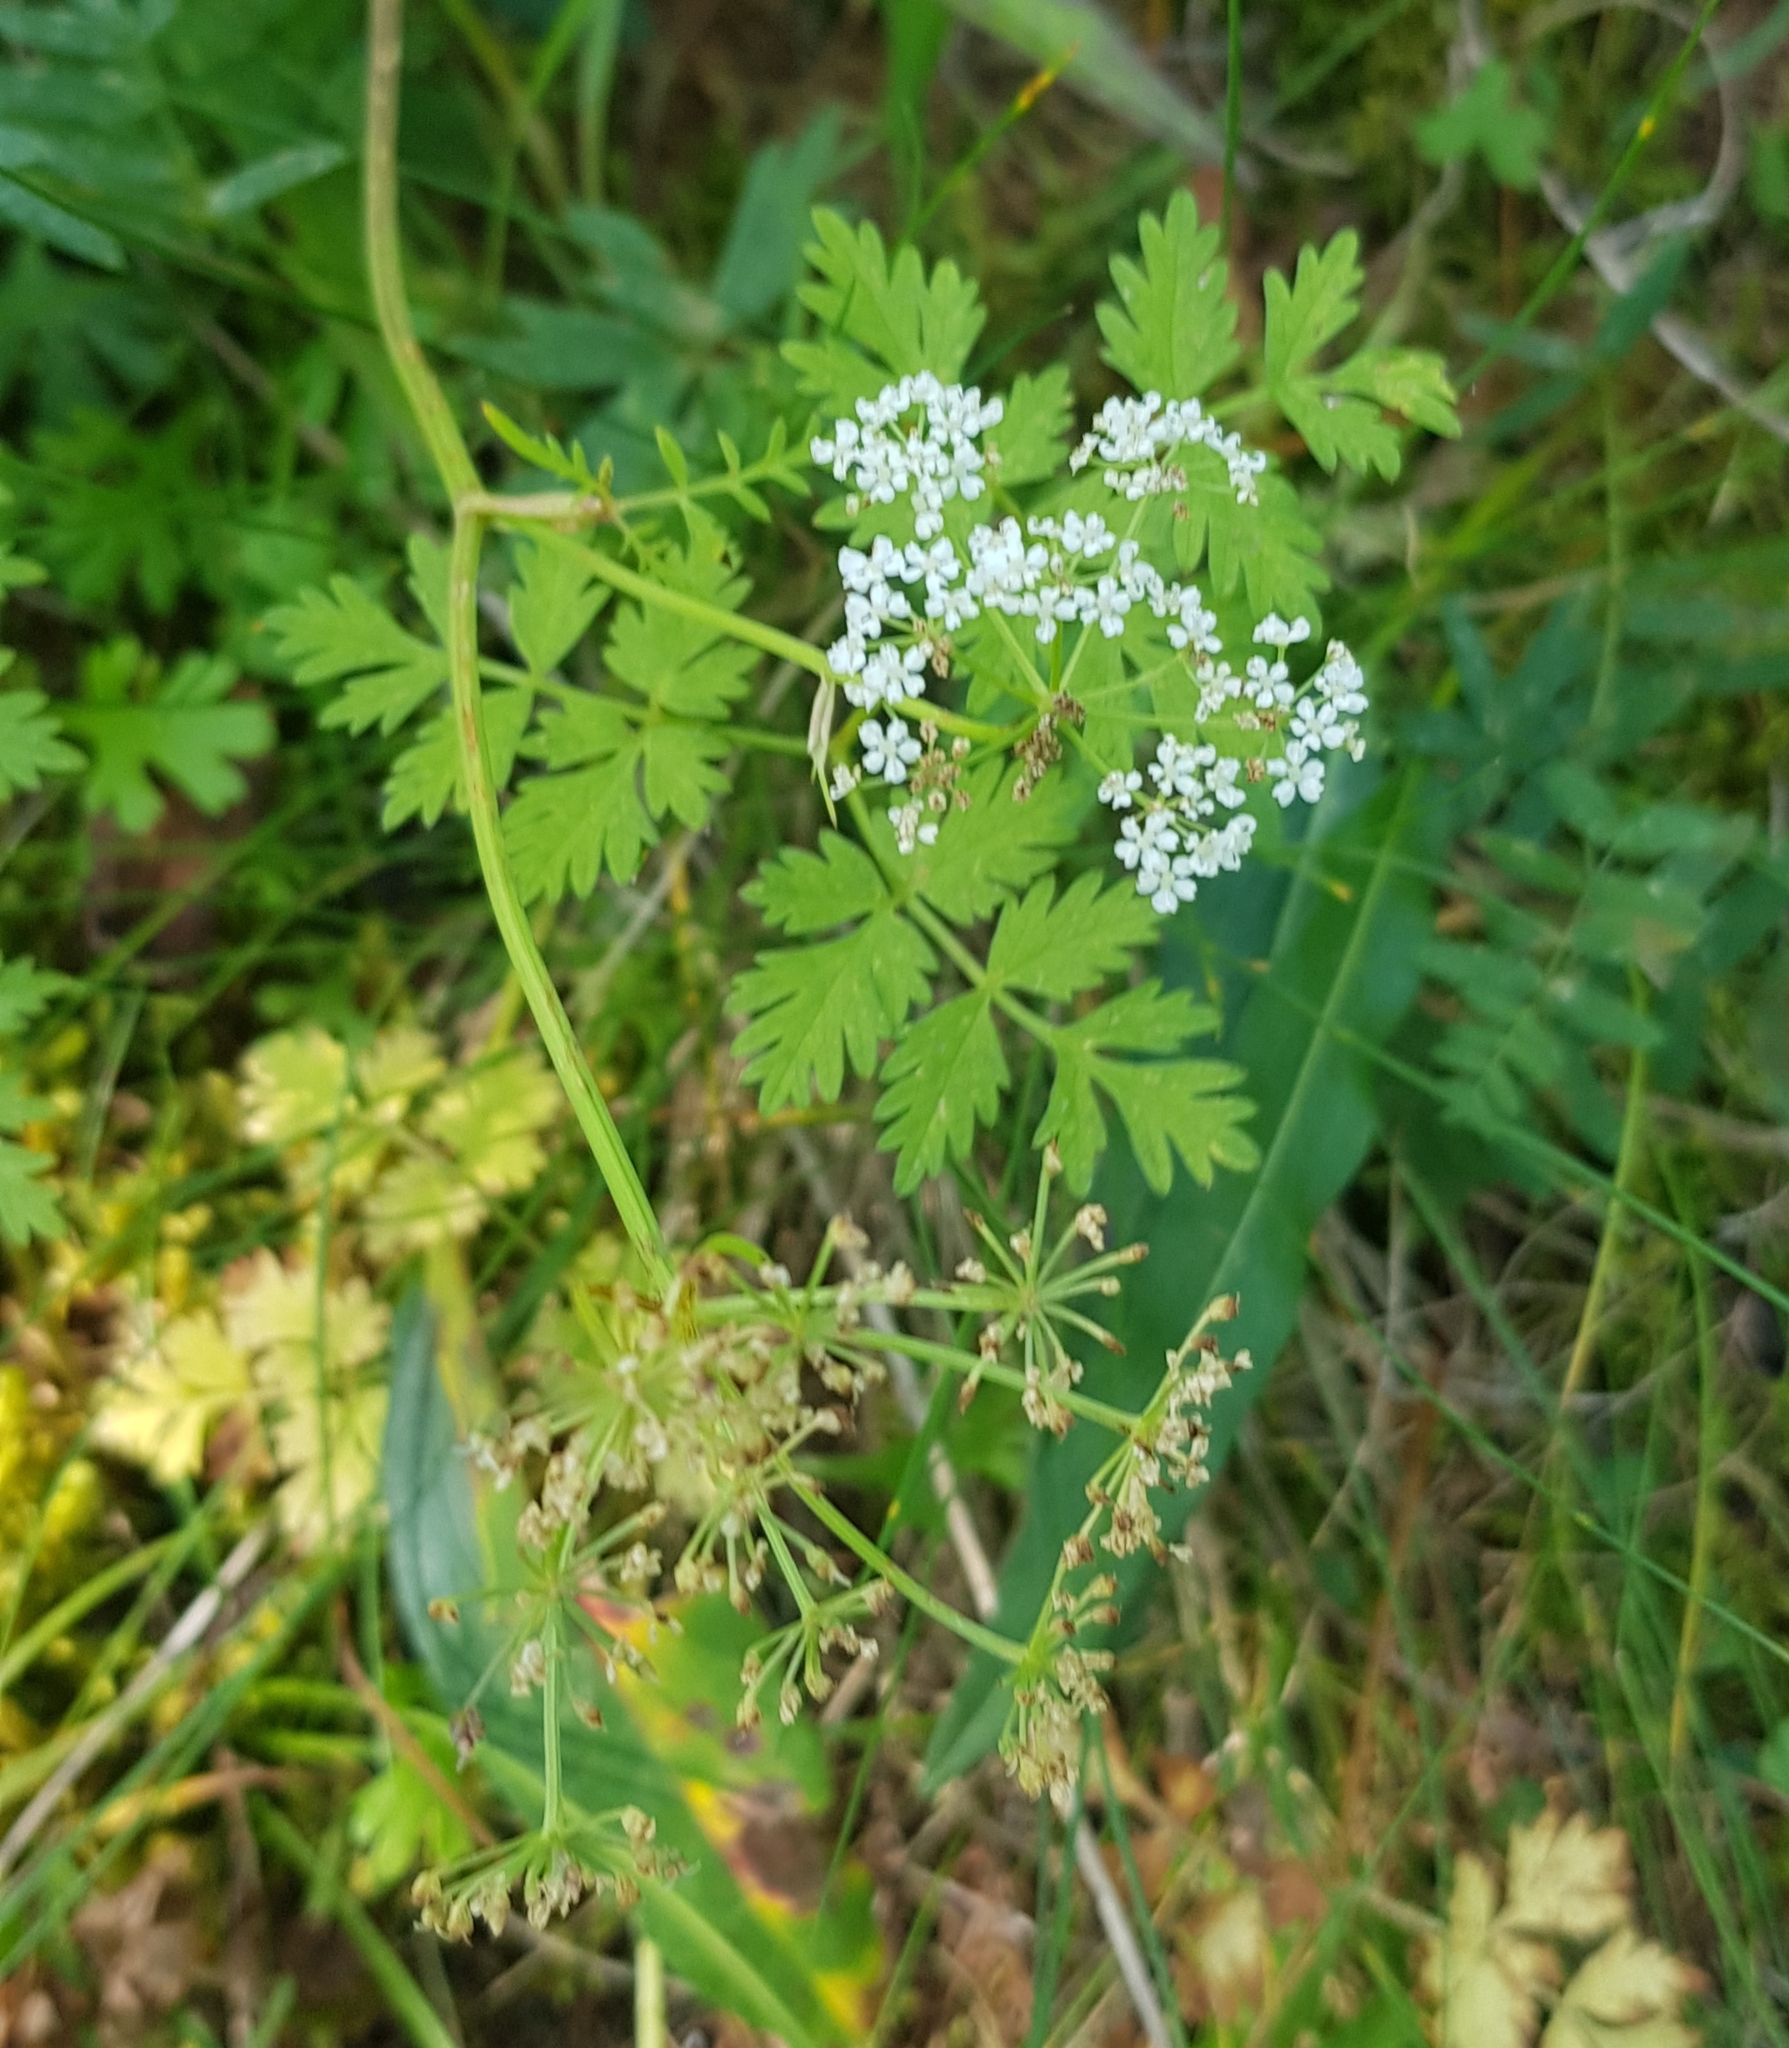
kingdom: Plantae
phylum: Tracheophyta
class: Magnoliopsida
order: Apiales
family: Apiaceae
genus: Aegopodium
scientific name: Aegopodium alpestre
